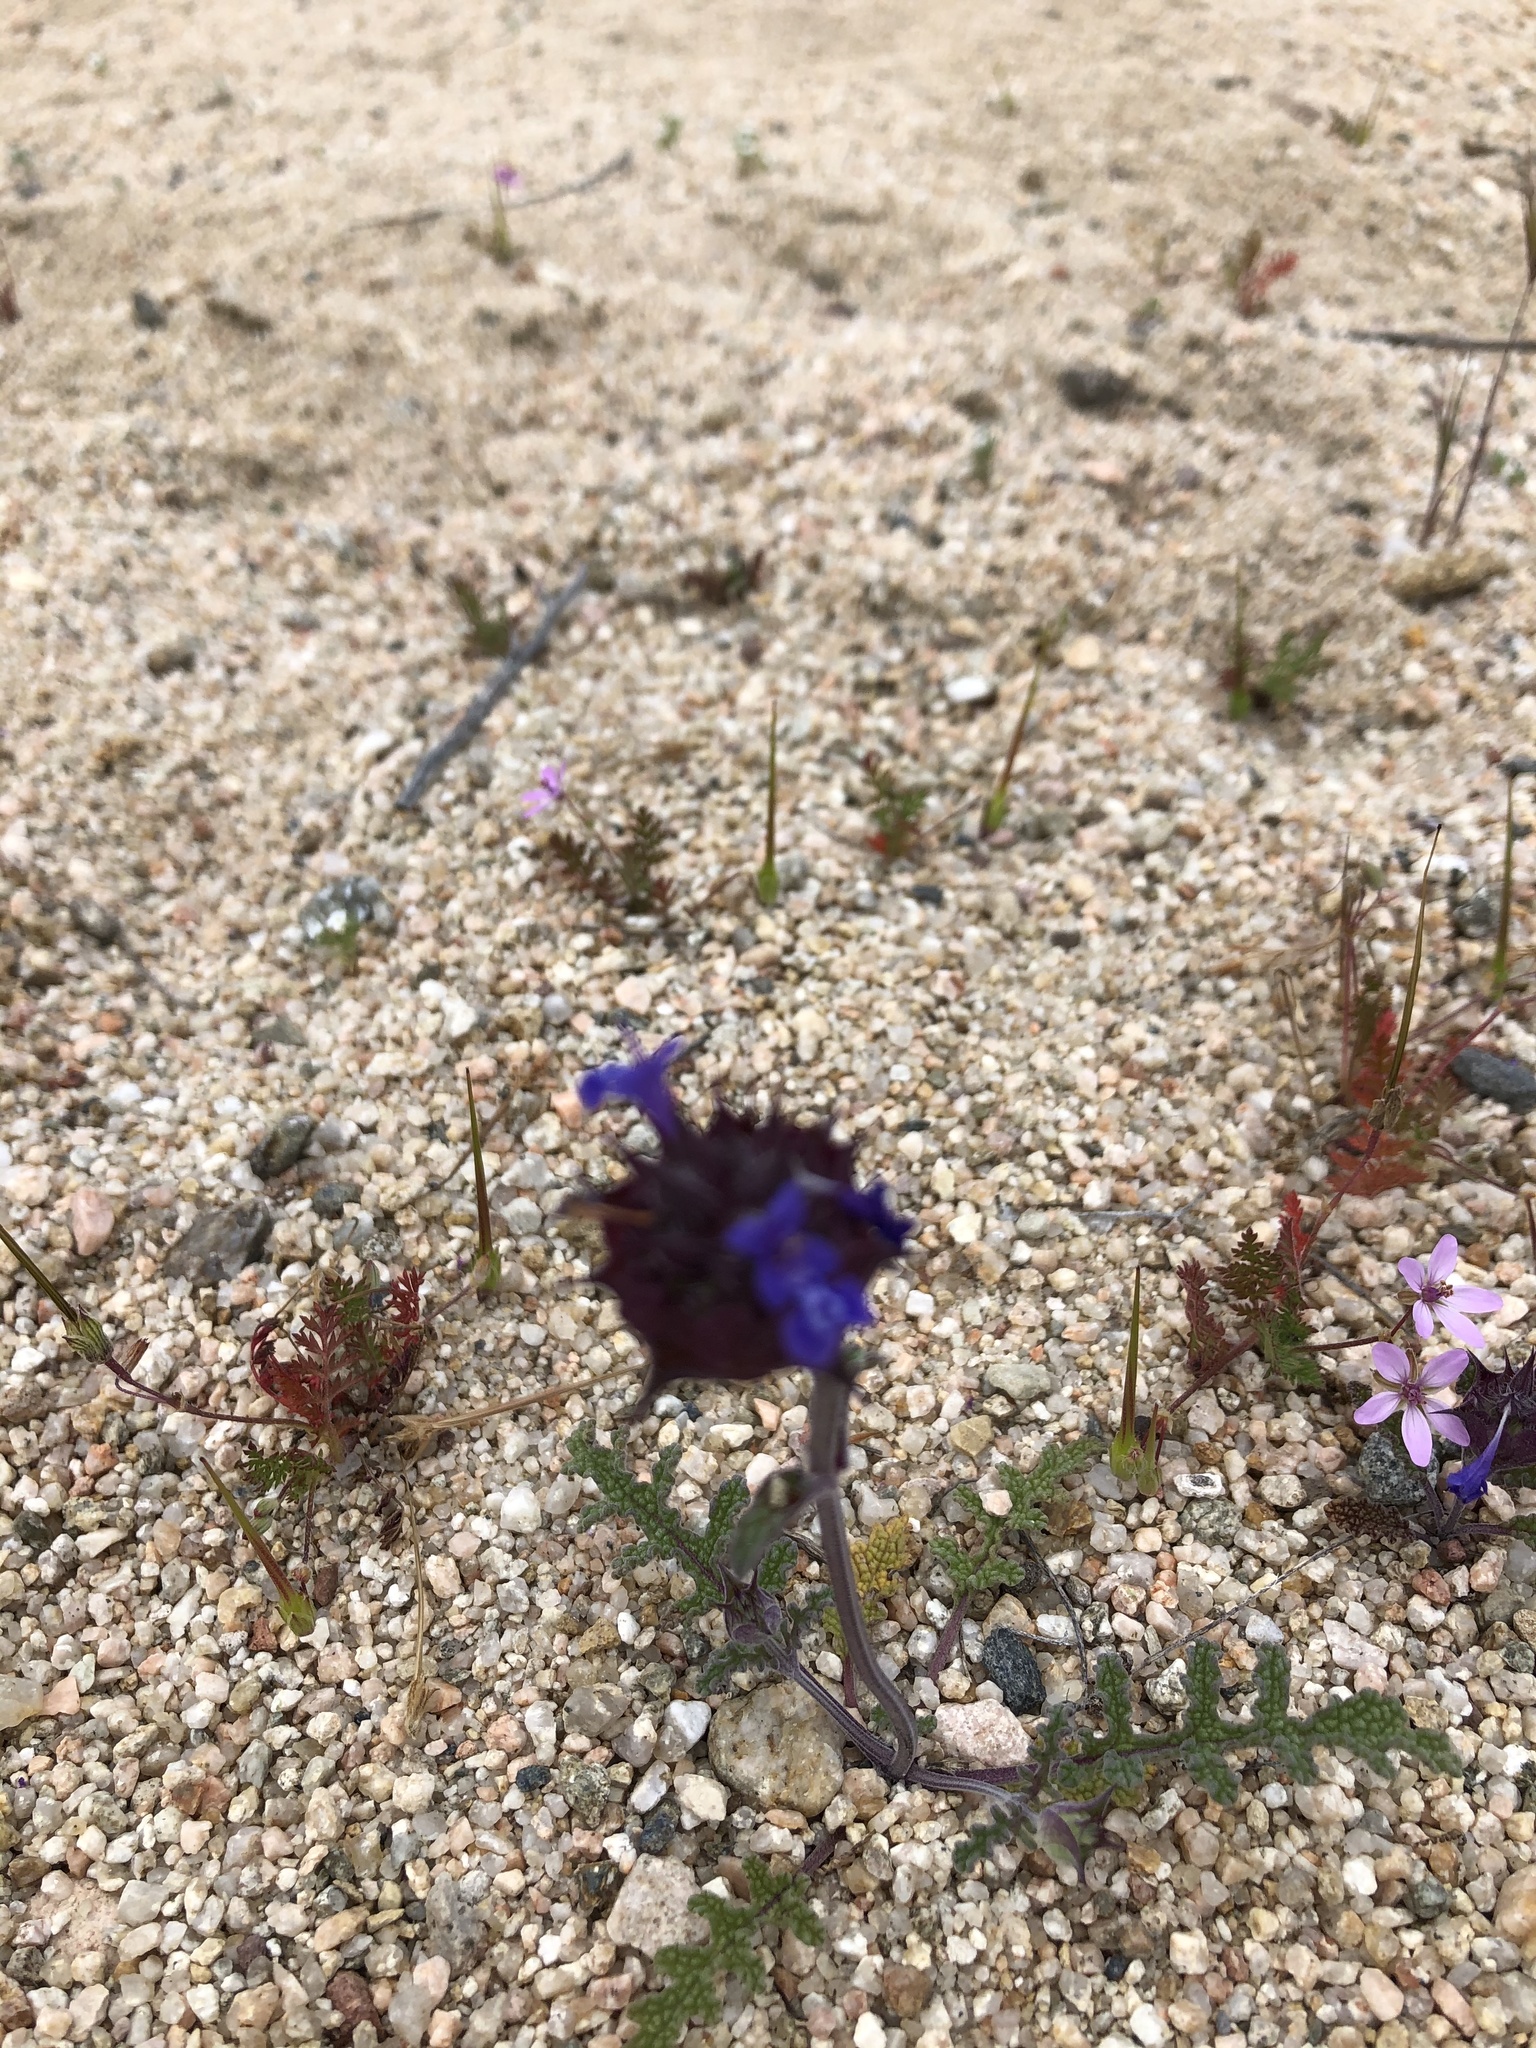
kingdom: Plantae
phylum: Tracheophyta
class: Magnoliopsida
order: Lamiales
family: Lamiaceae
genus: Salvia
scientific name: Salvia columbariae
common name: Chia
